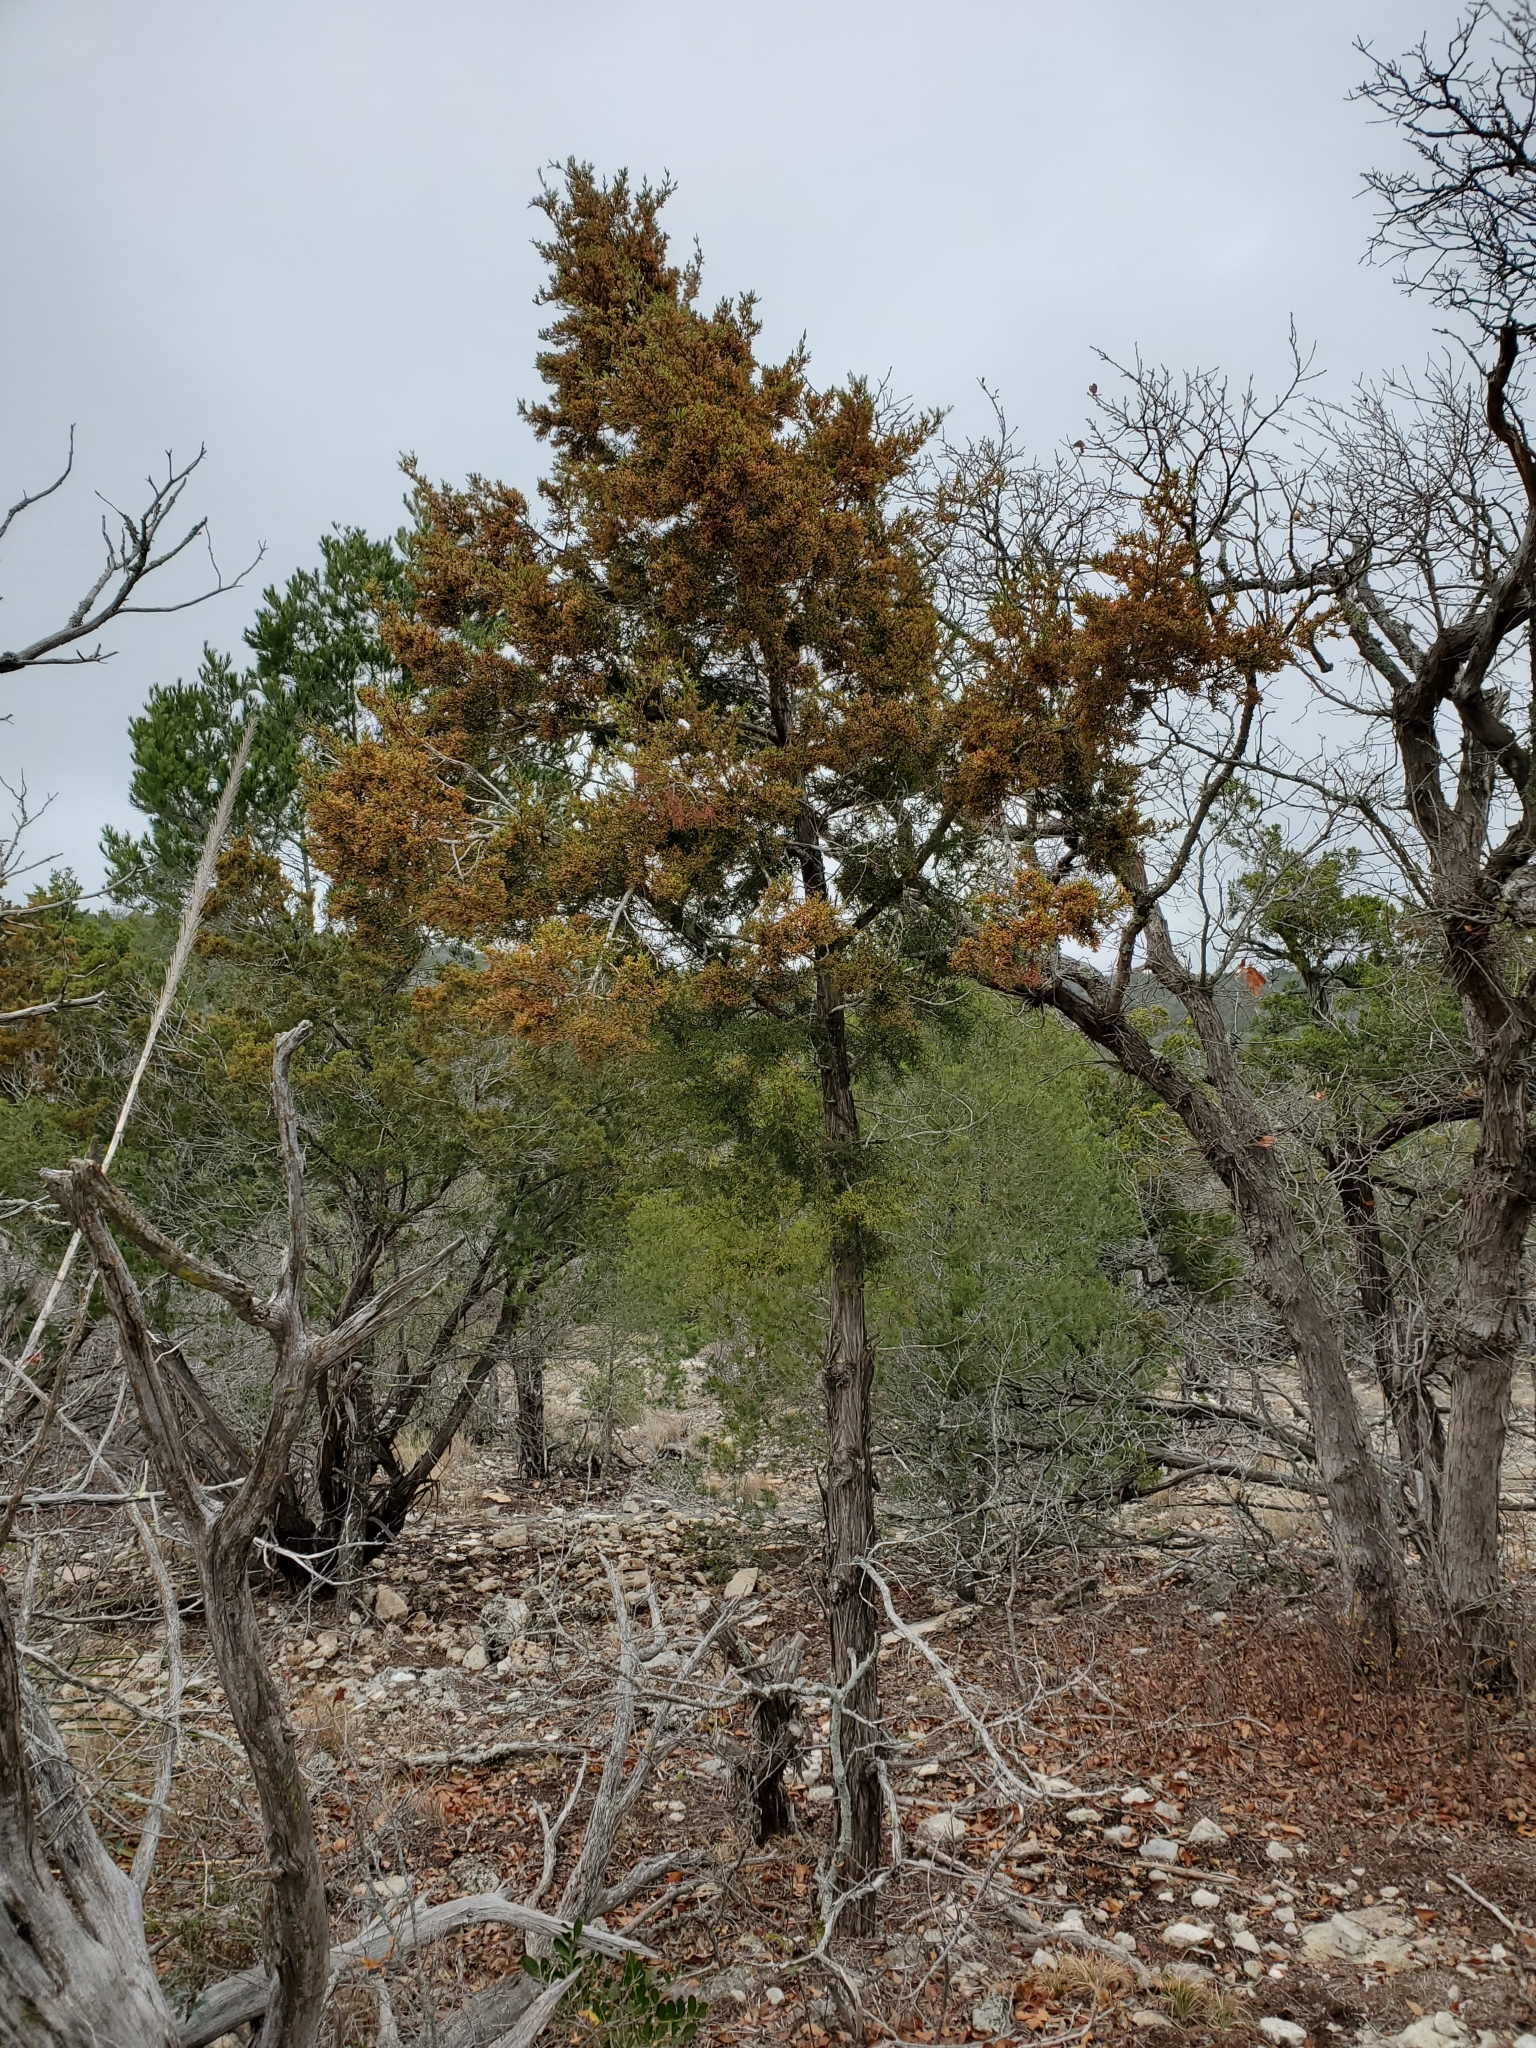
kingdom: Plantae
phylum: Tracheophyta
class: Pinopsida
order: Pinales
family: Cupressaceae
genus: Juniperus
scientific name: Juniperus ashei
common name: Mexican juniper
